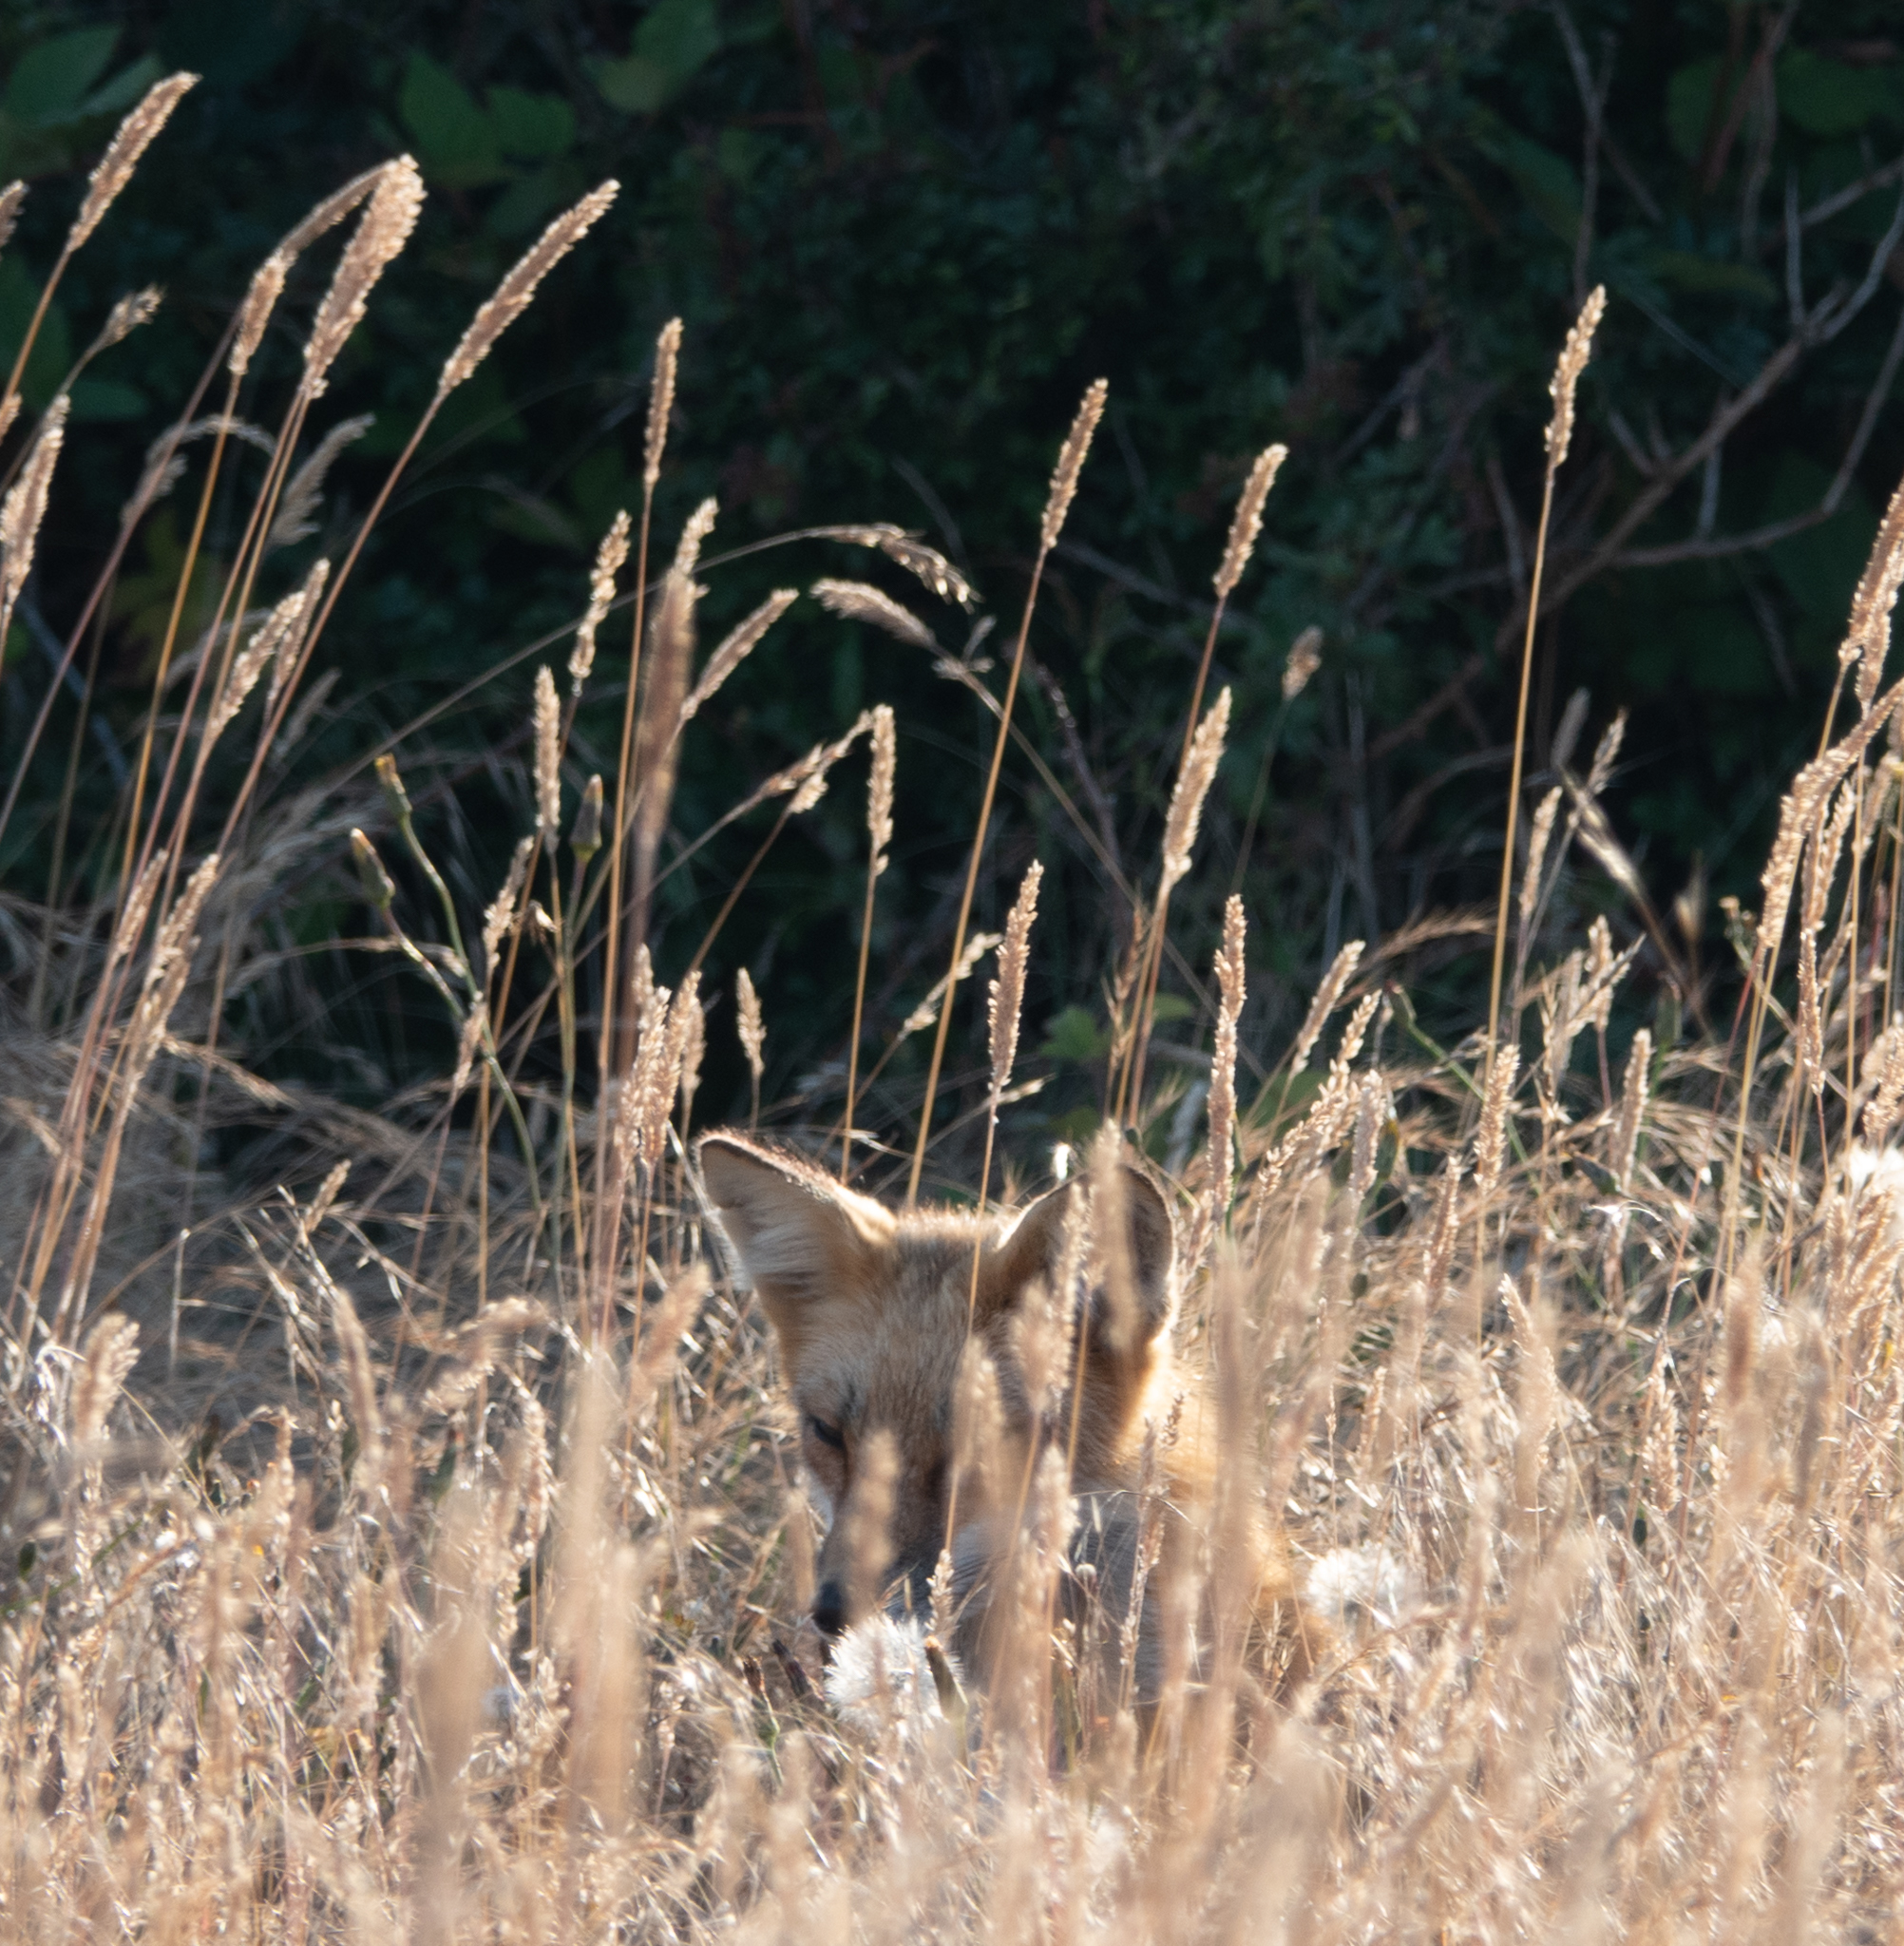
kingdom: Animalia
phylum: Chordata
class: Mammalia
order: Carnivora
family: Canidae
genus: Vulpes
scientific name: Vulpes vulpes
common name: Red fox
